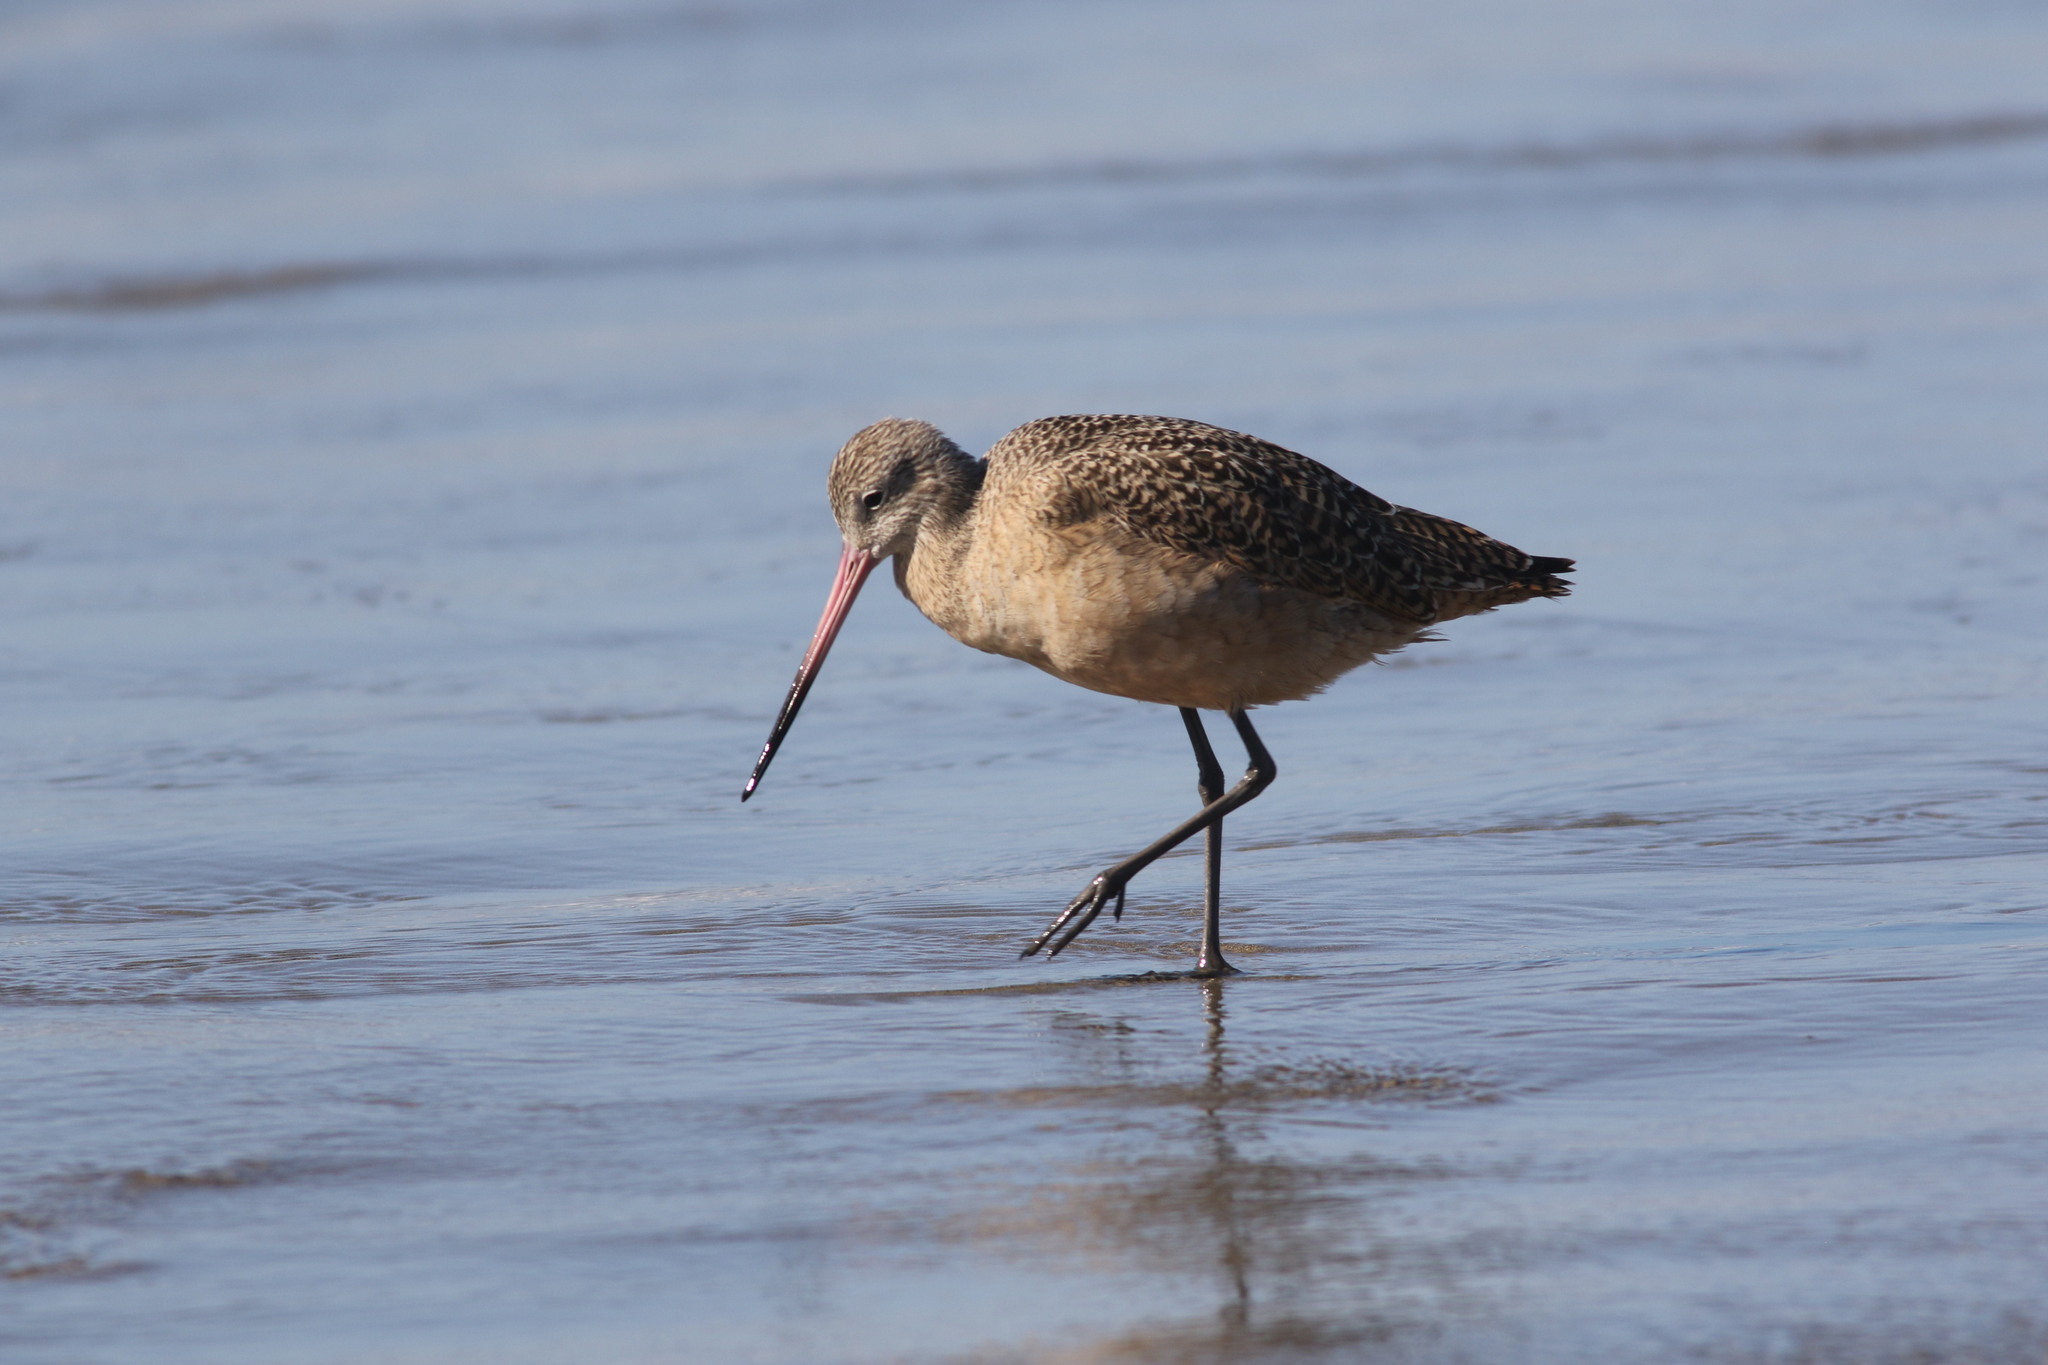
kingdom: Animalia
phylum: Chordata
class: Aves
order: Charadriiformes
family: Scolopacidae
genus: Limosa
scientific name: Limosa fedoa
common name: Marbled godwit
